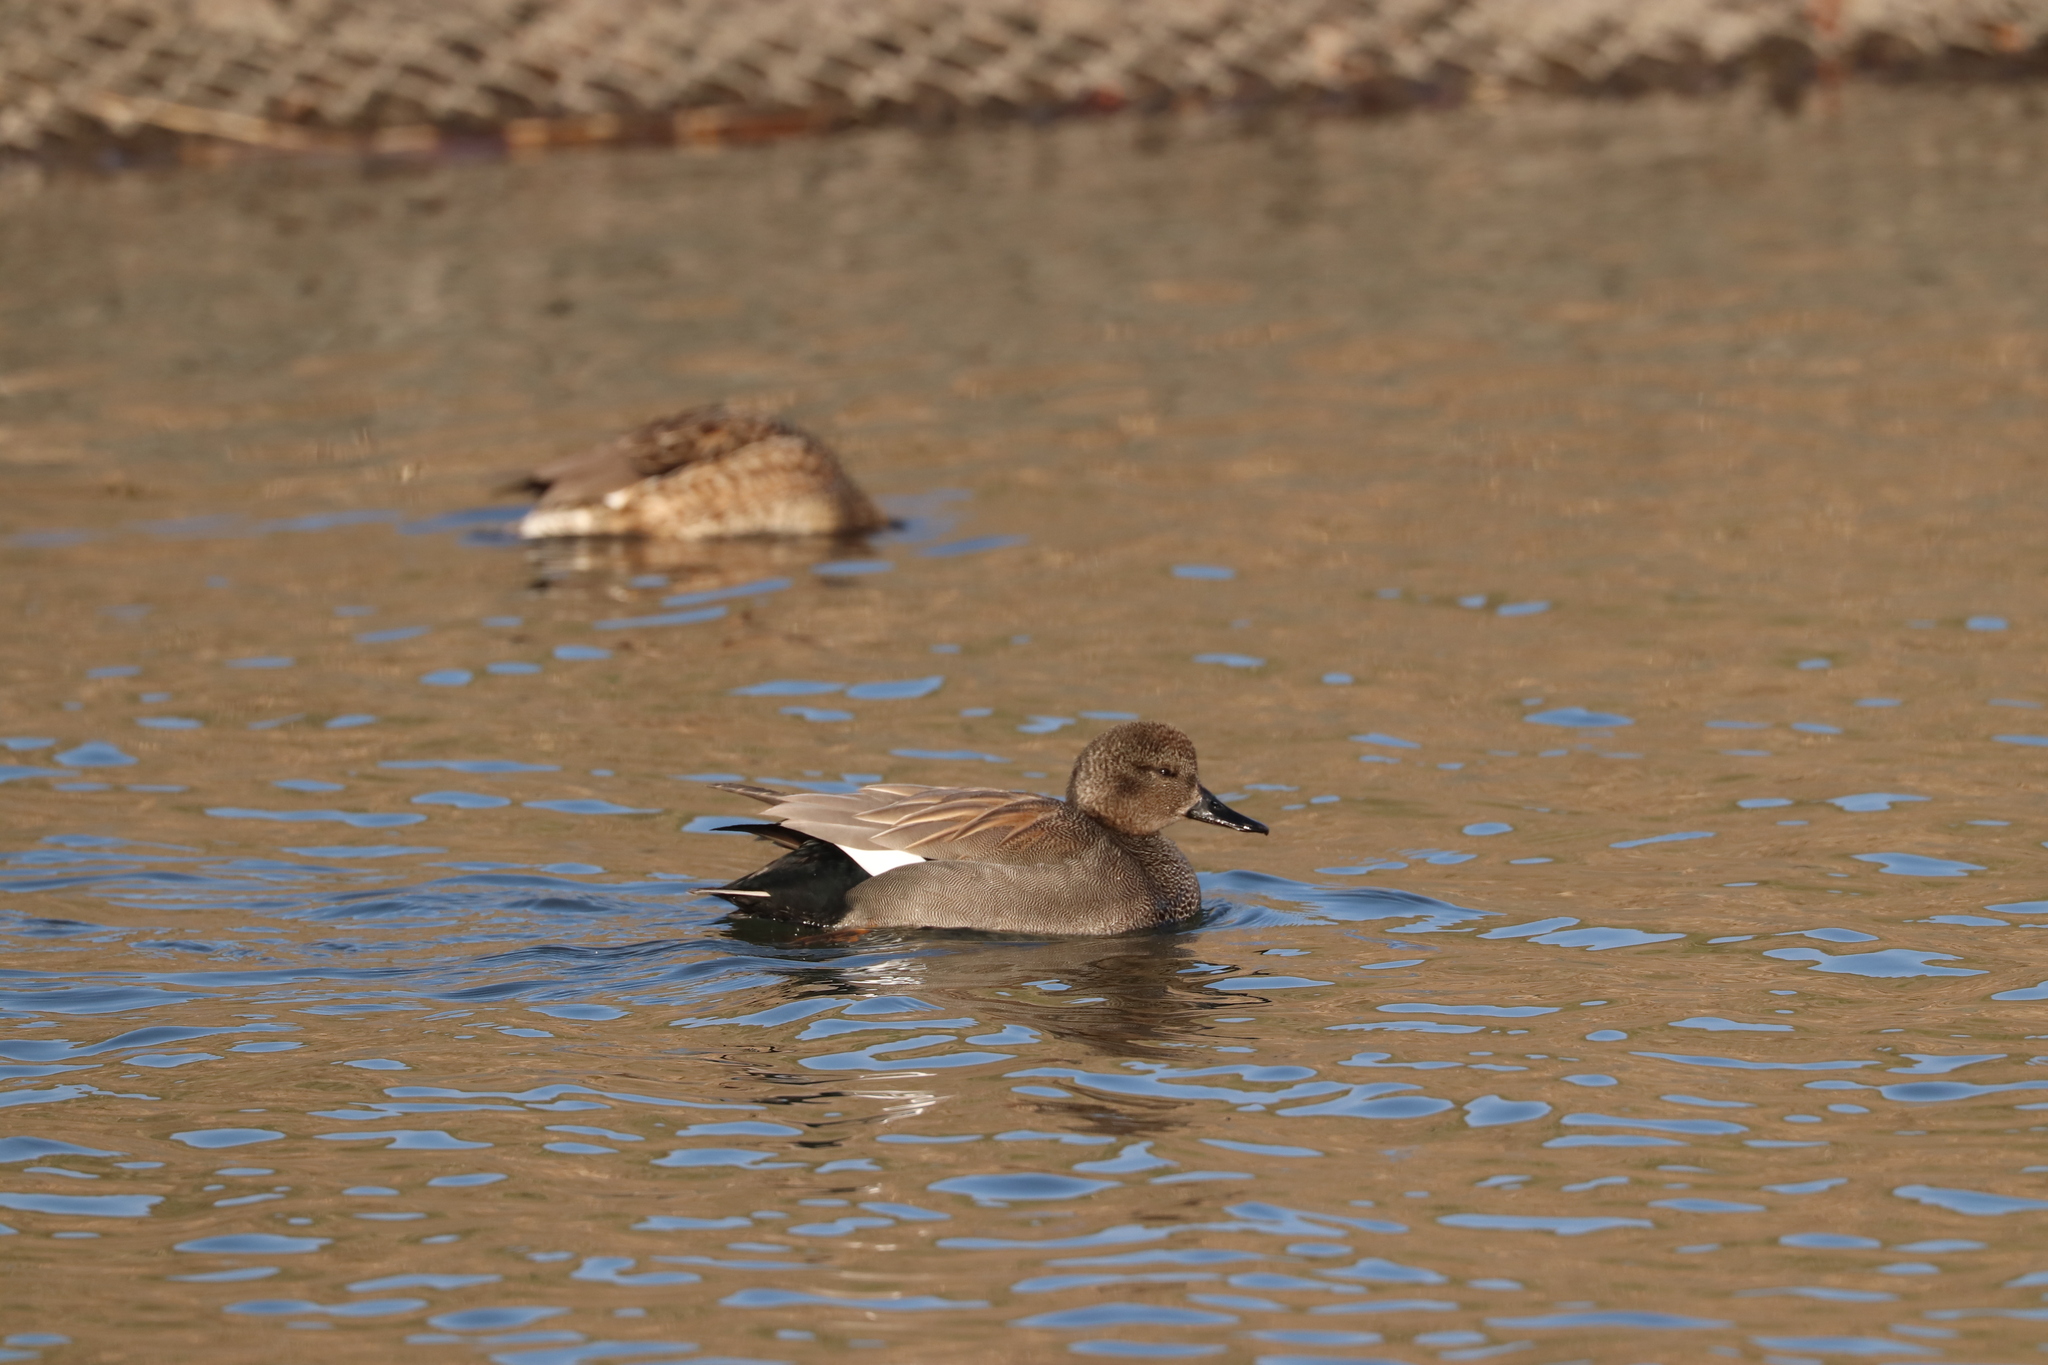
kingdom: Animalia
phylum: Chordata
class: Aves
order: Anseriformes
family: Anatidae
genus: Mareca
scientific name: Mareca strepera
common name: Gadwall
